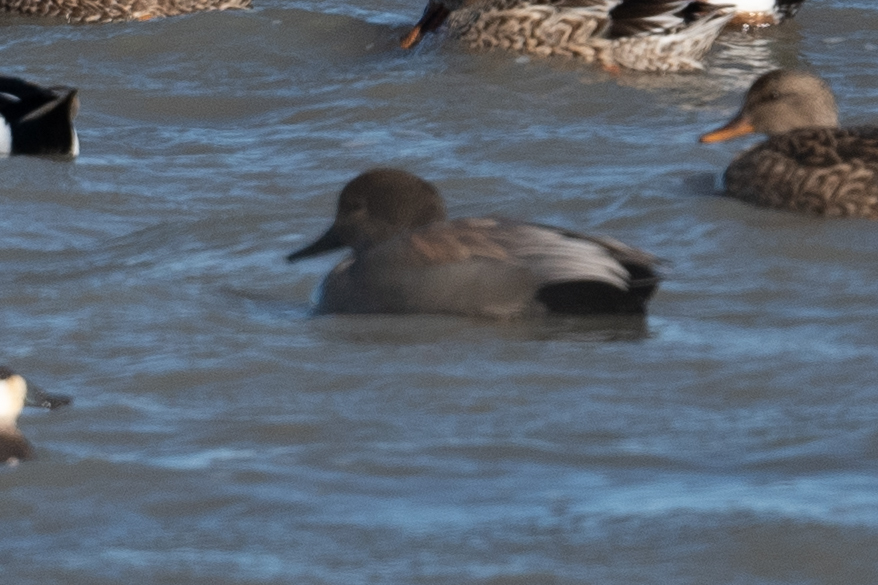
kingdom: Animalia
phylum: Chordata
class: Aves
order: Anseriformes
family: Anatidae
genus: Mareca
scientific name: Mareca strepera
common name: Gadwall
